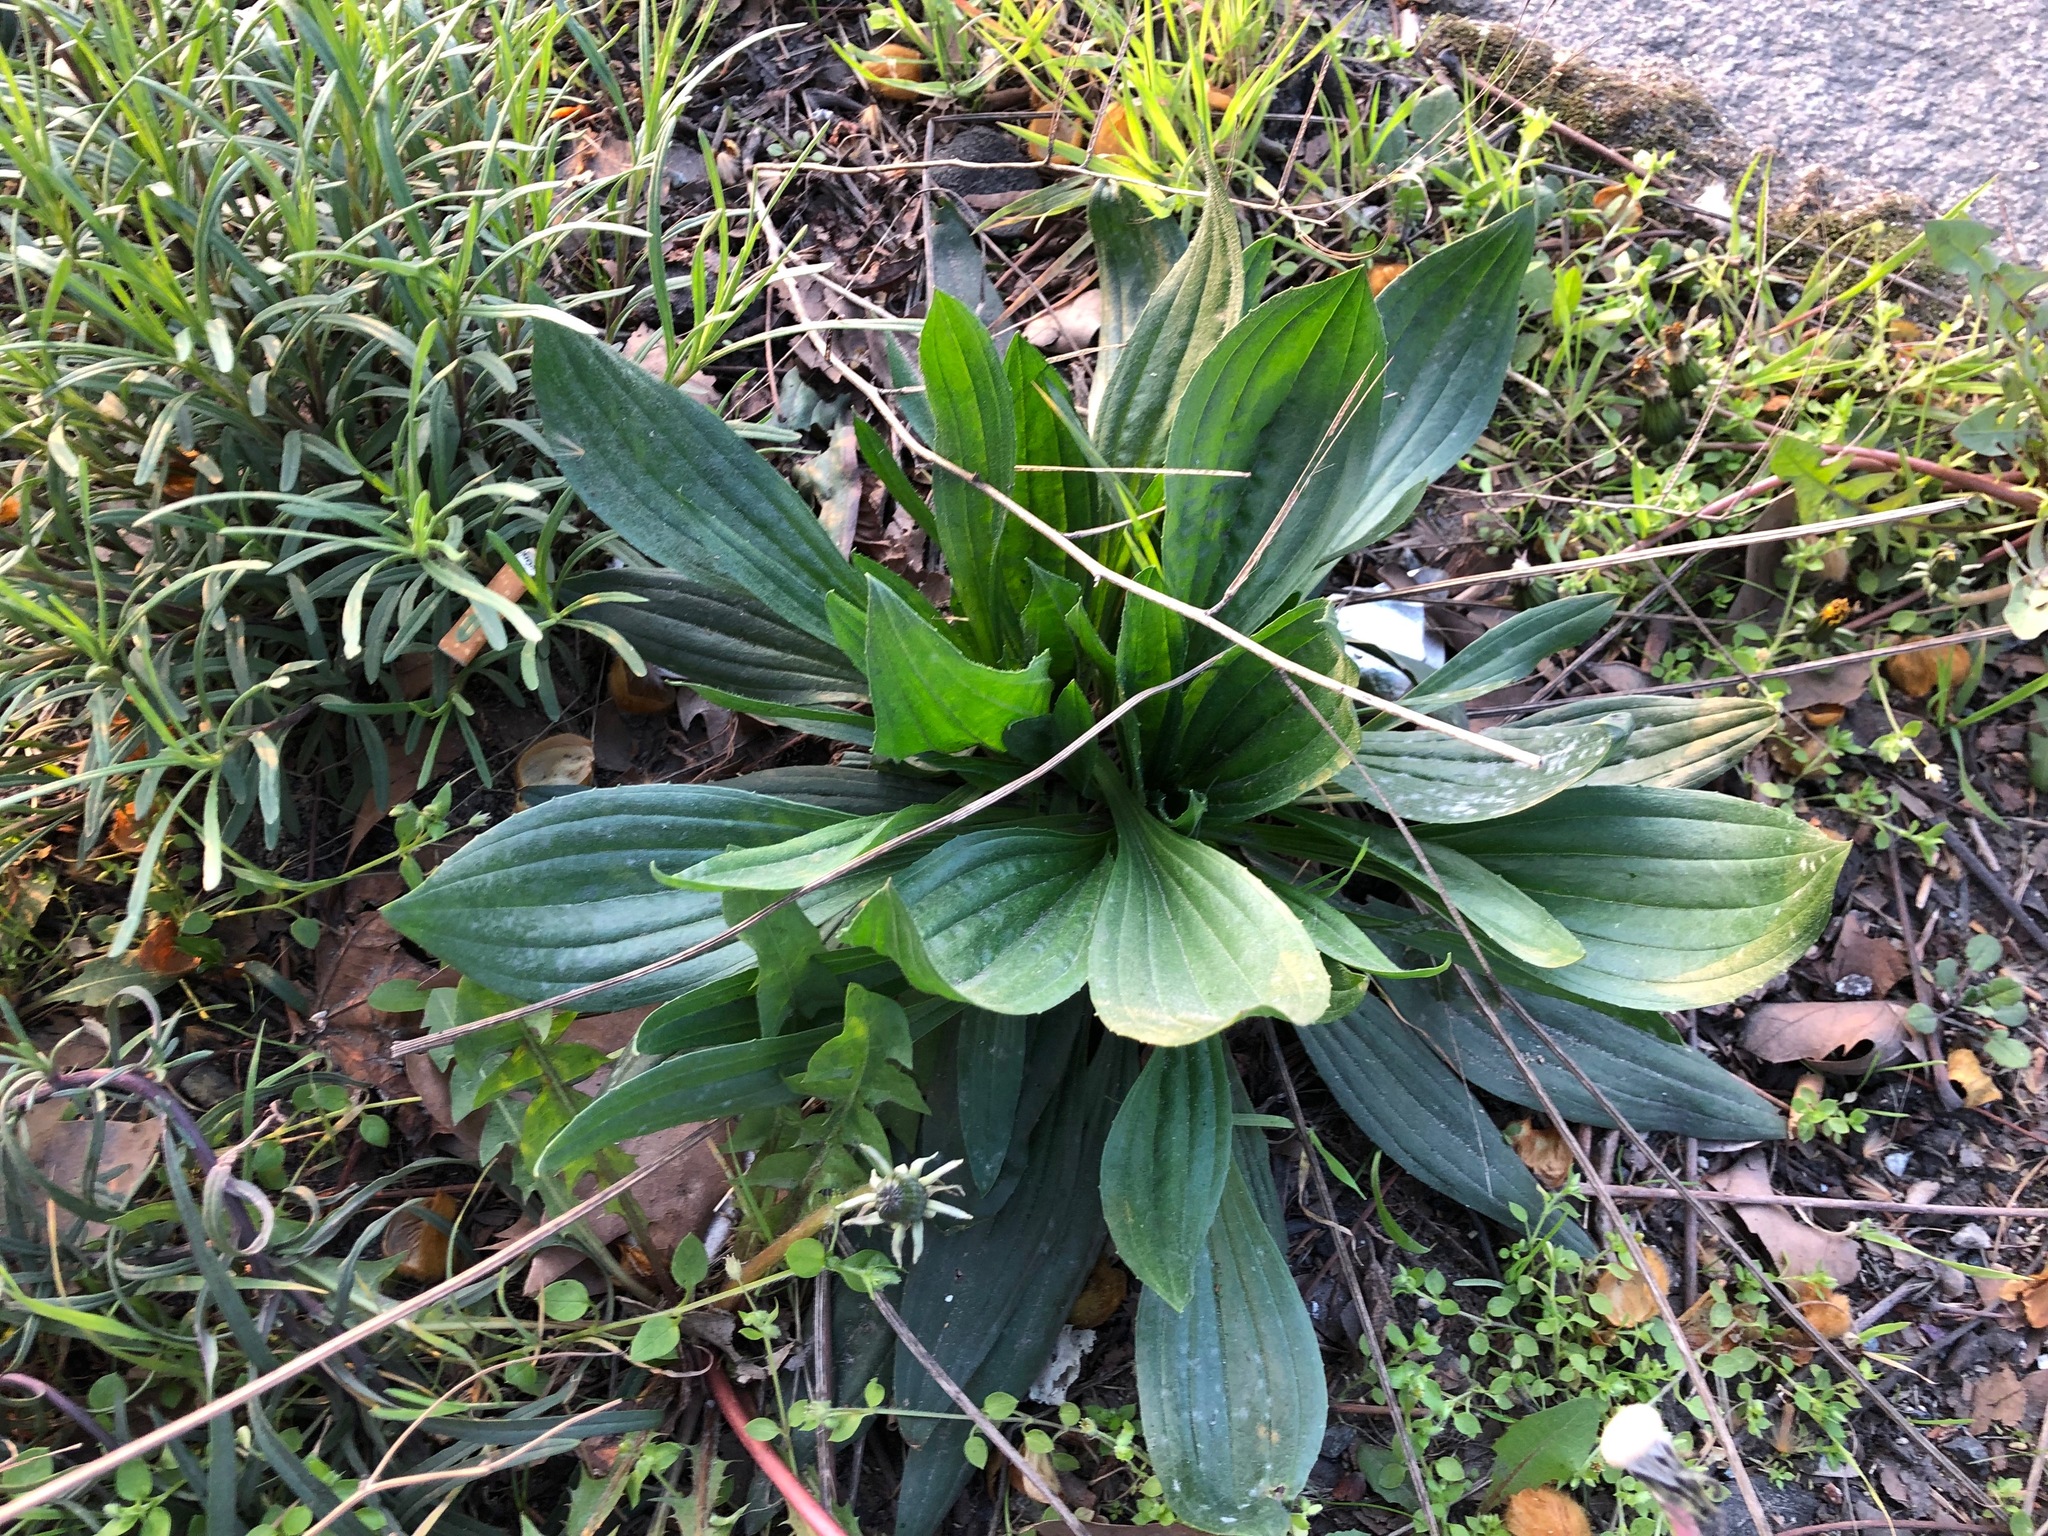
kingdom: Plantae
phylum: Tracheophyta
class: Magnoliopsida
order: Lamiales
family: Plantaginaceae
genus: Plantago
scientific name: Plantago lanceolata
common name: Ribwort plantain
